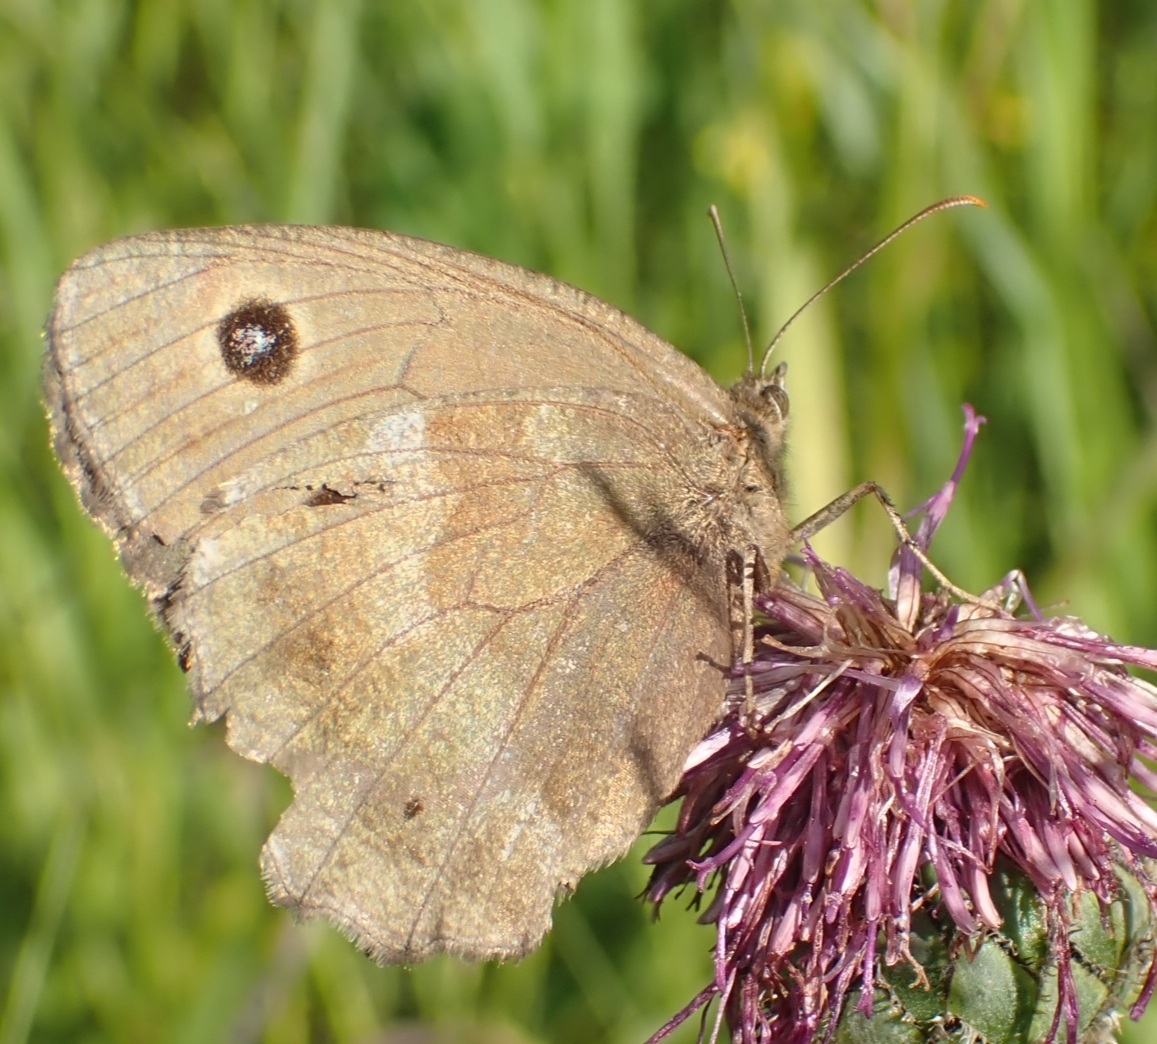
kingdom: Animalia
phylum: Arthropoda
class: Insecta
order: Lepidoptera
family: Nymphalidae
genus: Minois
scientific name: Minois dryas
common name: Dryad
